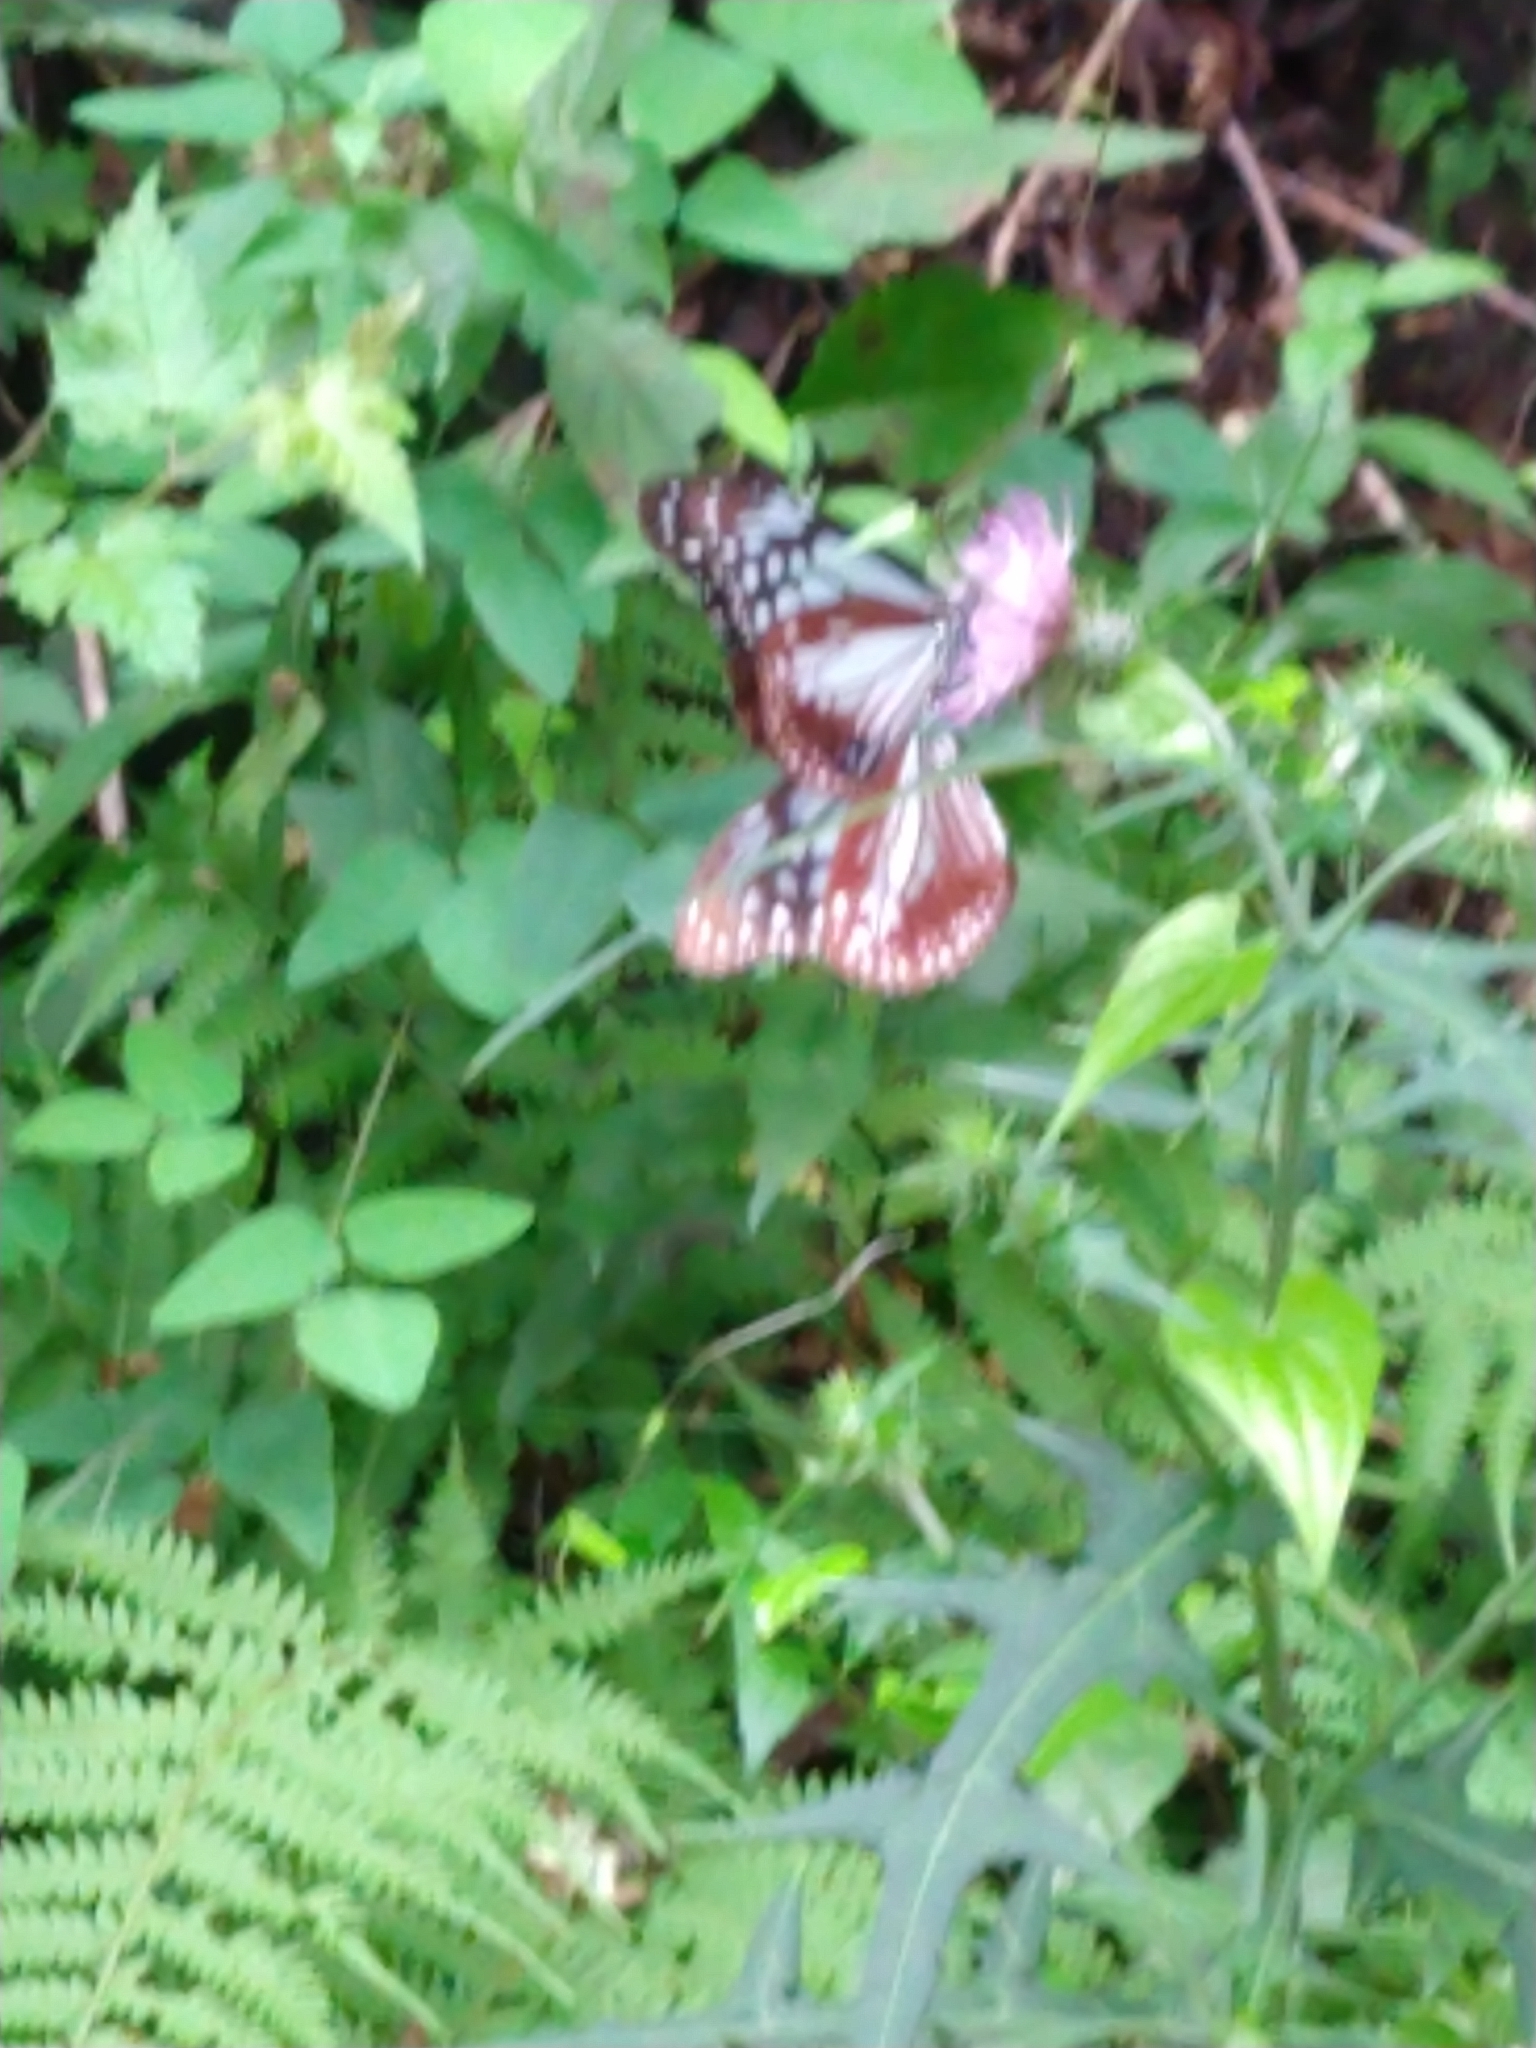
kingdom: Animalia
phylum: Arthropoda
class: Insecta
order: Lepidoptera
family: Nymphalidae
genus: Parantica
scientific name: Parantica sita
